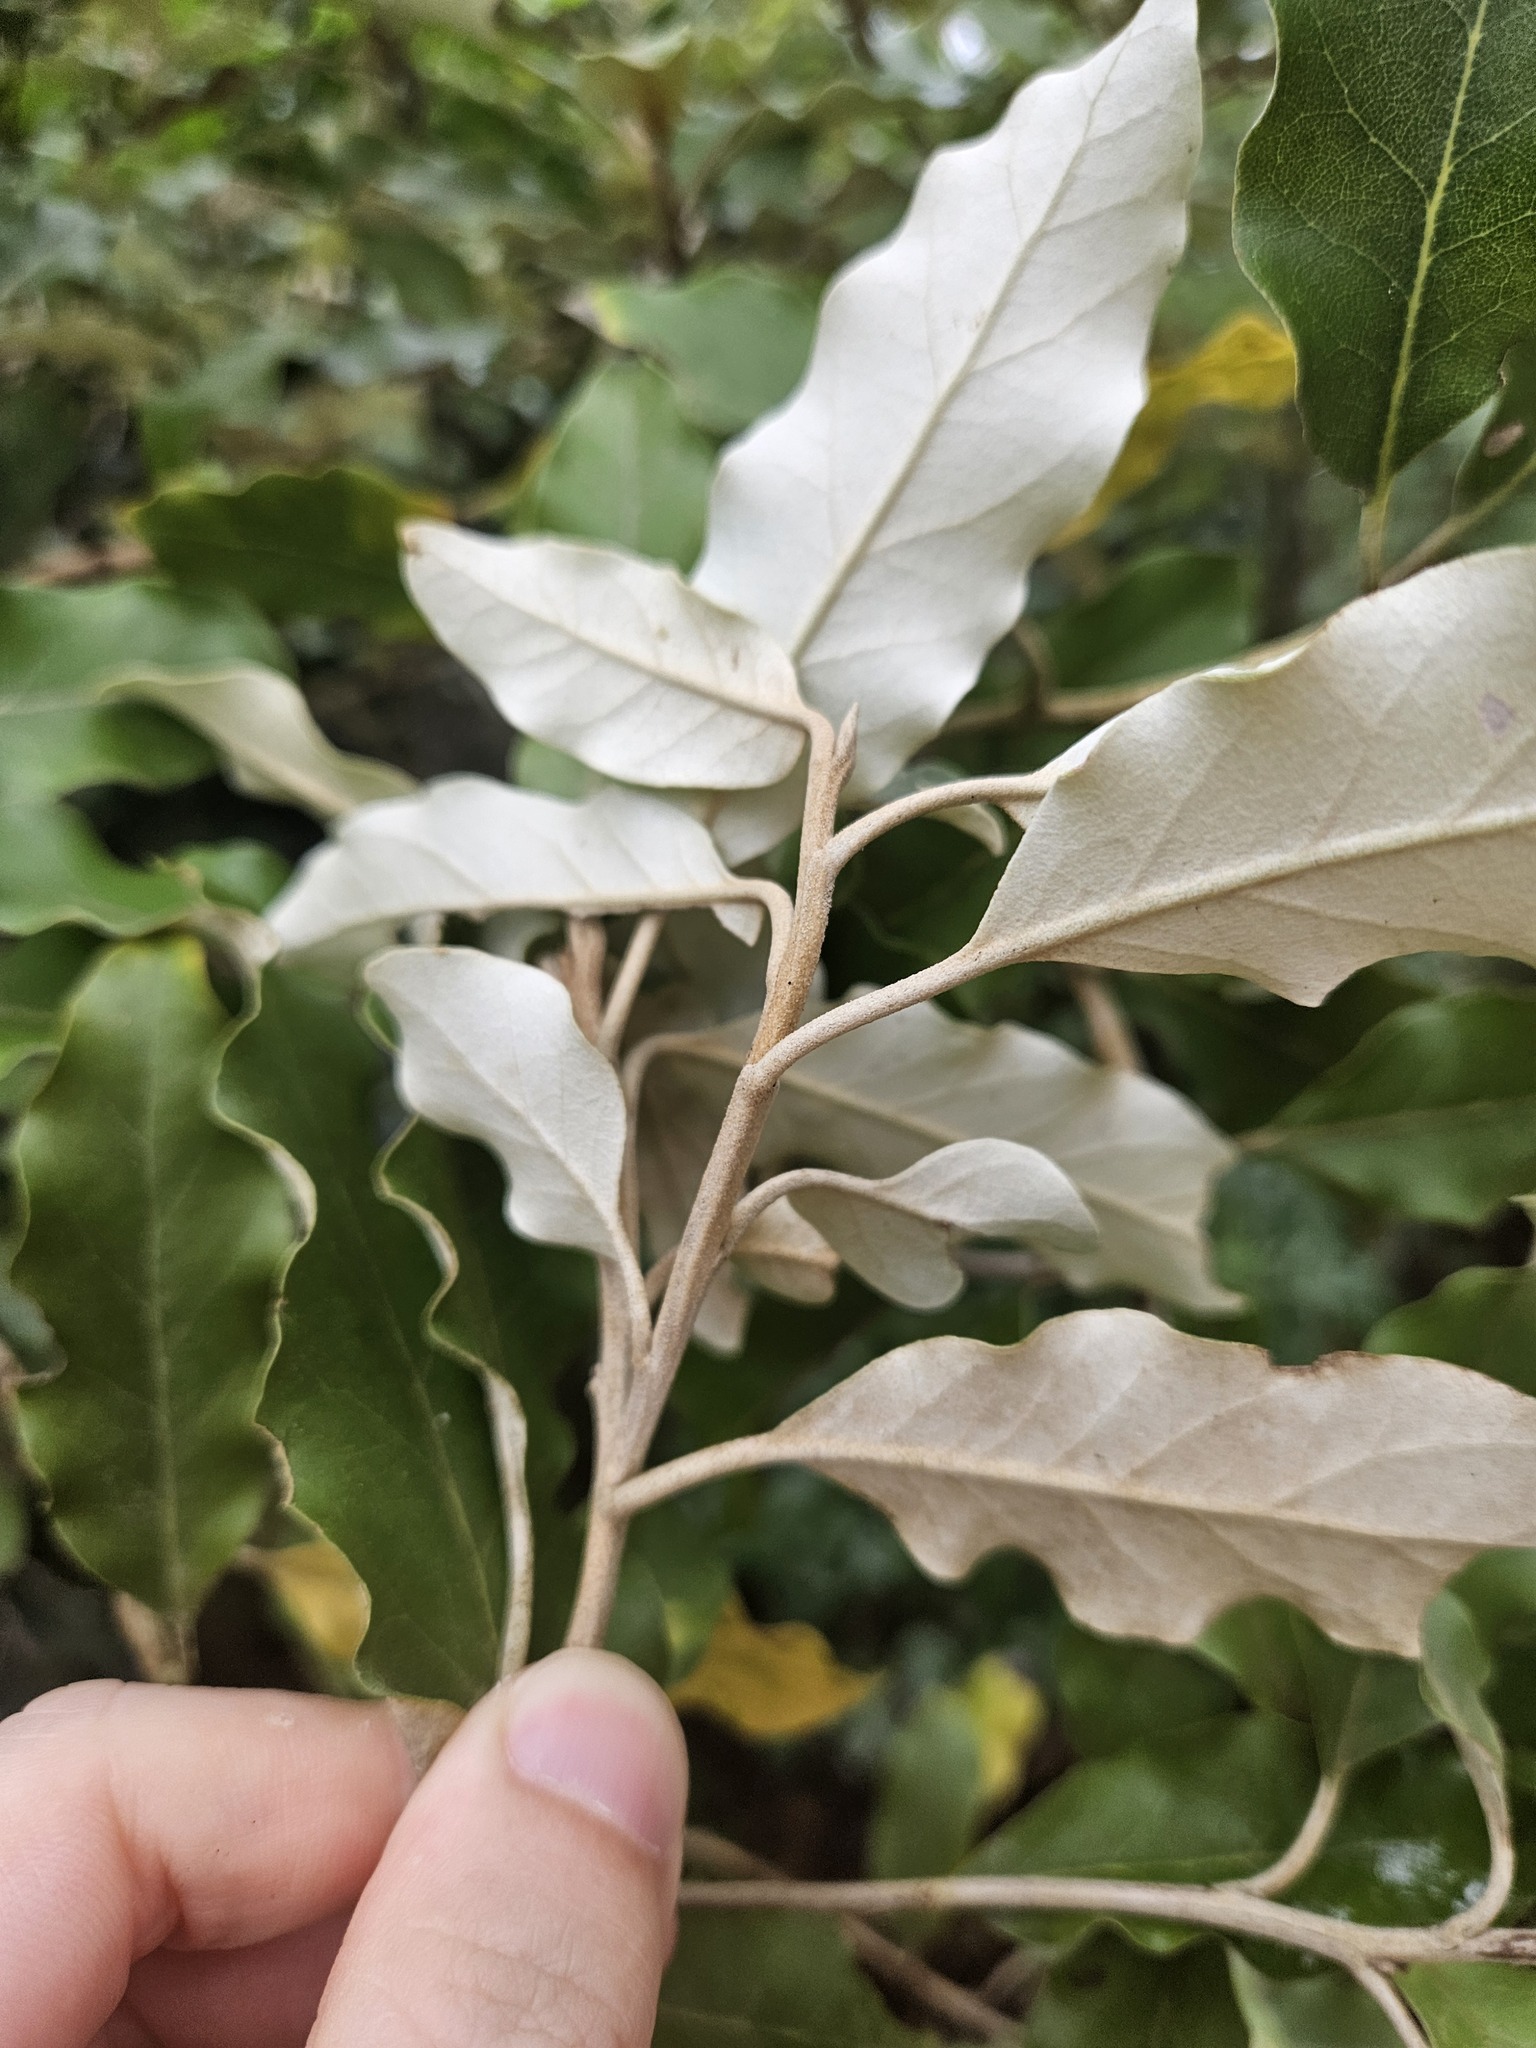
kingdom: Plantae
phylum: Tracheophyta
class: Magnoliopsida
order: Asterales
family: Asteraceae
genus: Olearia
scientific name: Olearia albida
